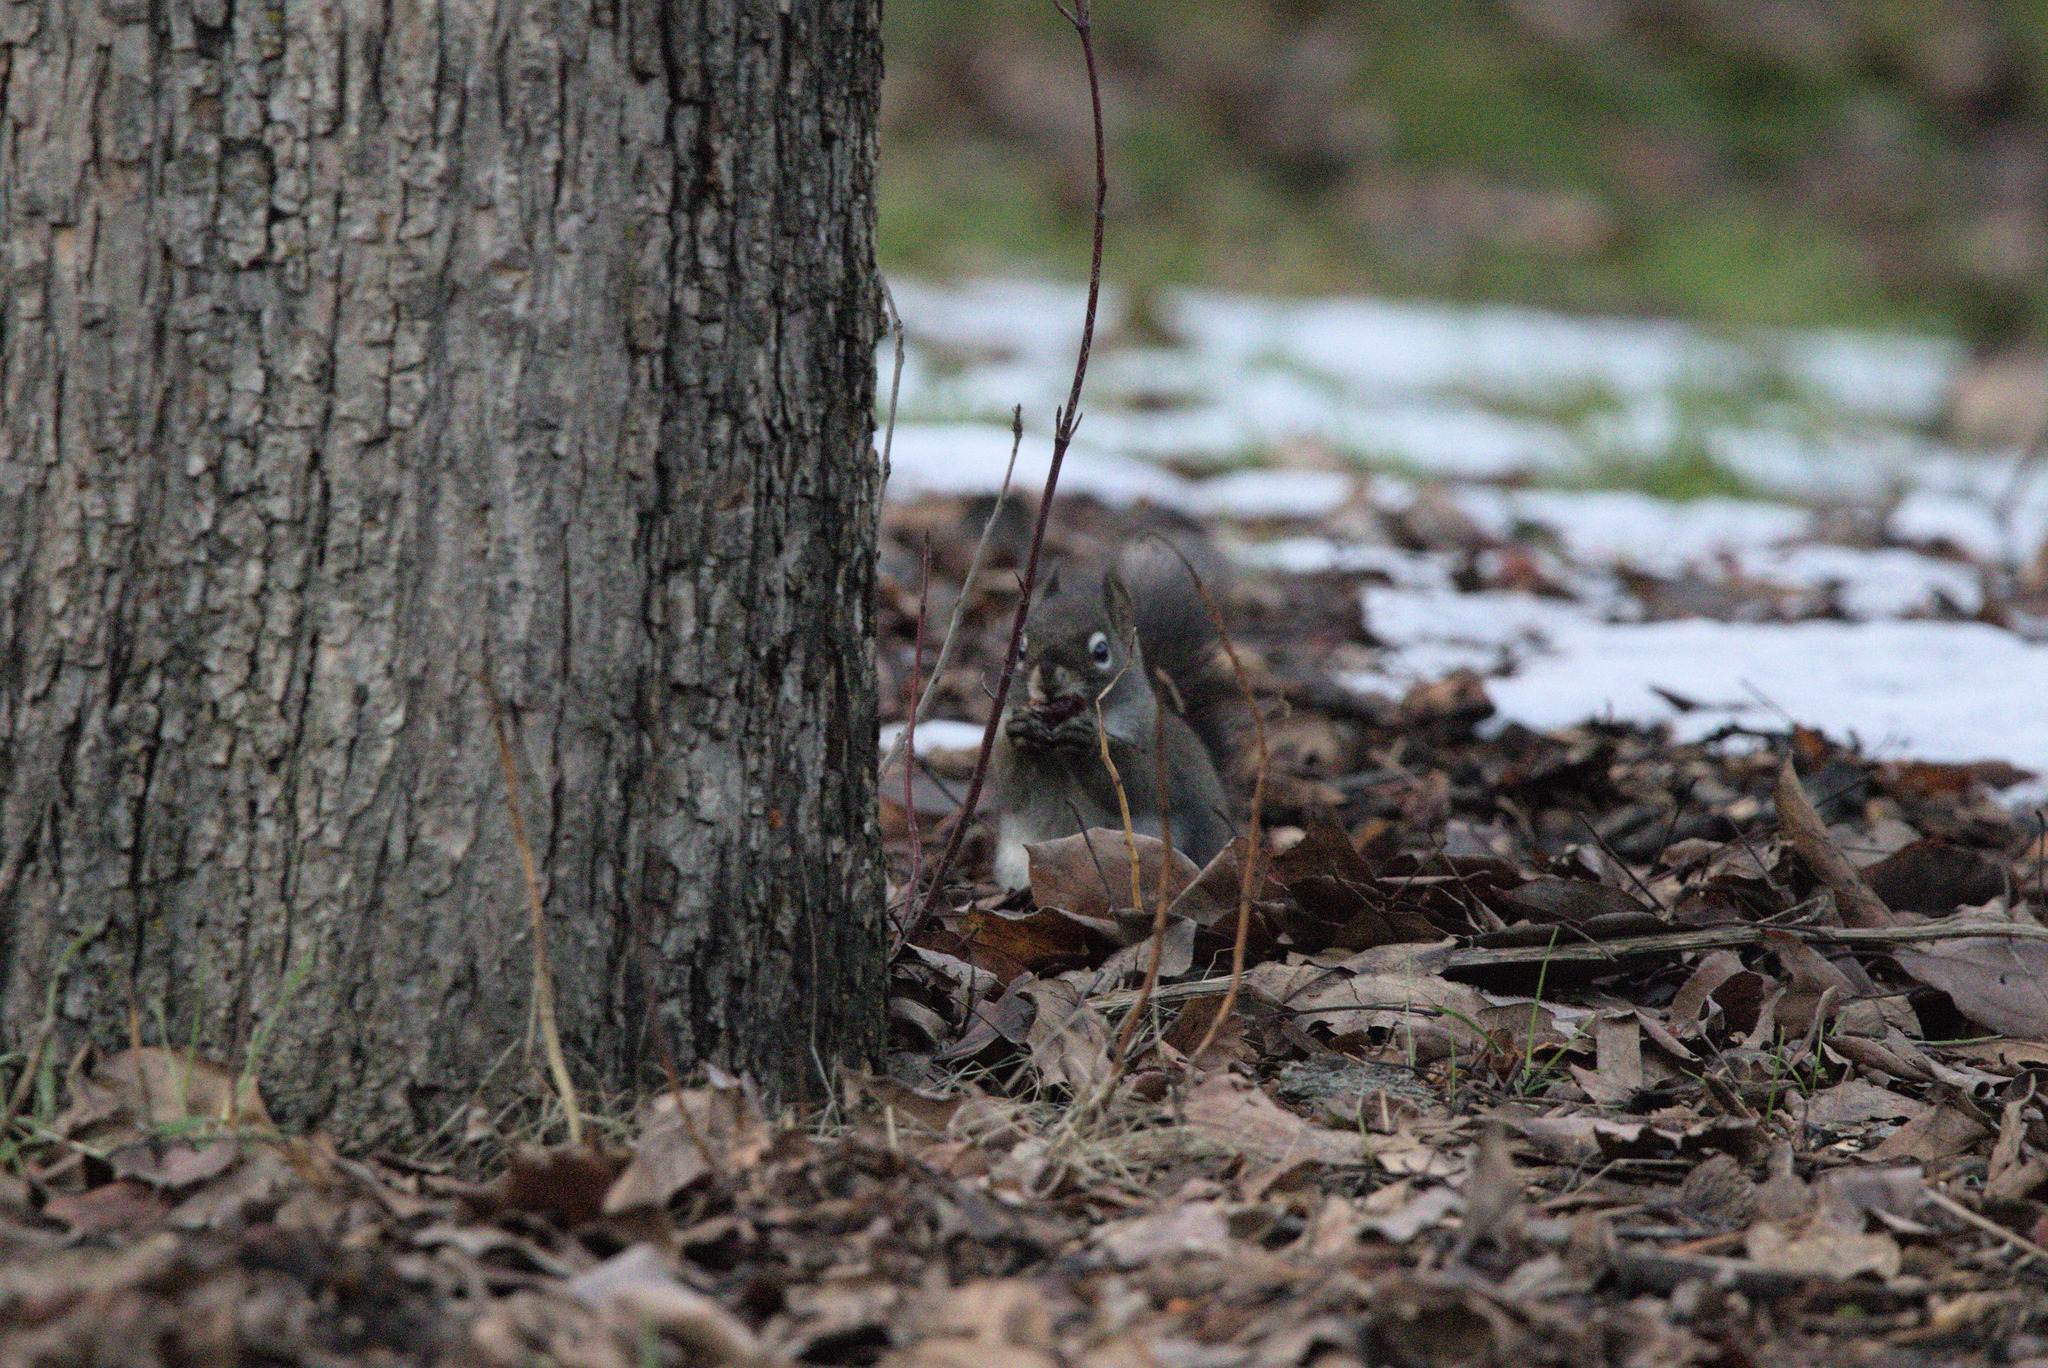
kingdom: Animalia
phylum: Chordata
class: Mammalia
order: Rodentia
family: Sciuridae
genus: Tamiasciurus
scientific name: Tamiasciurus hudsonicus
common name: Red squirrel
